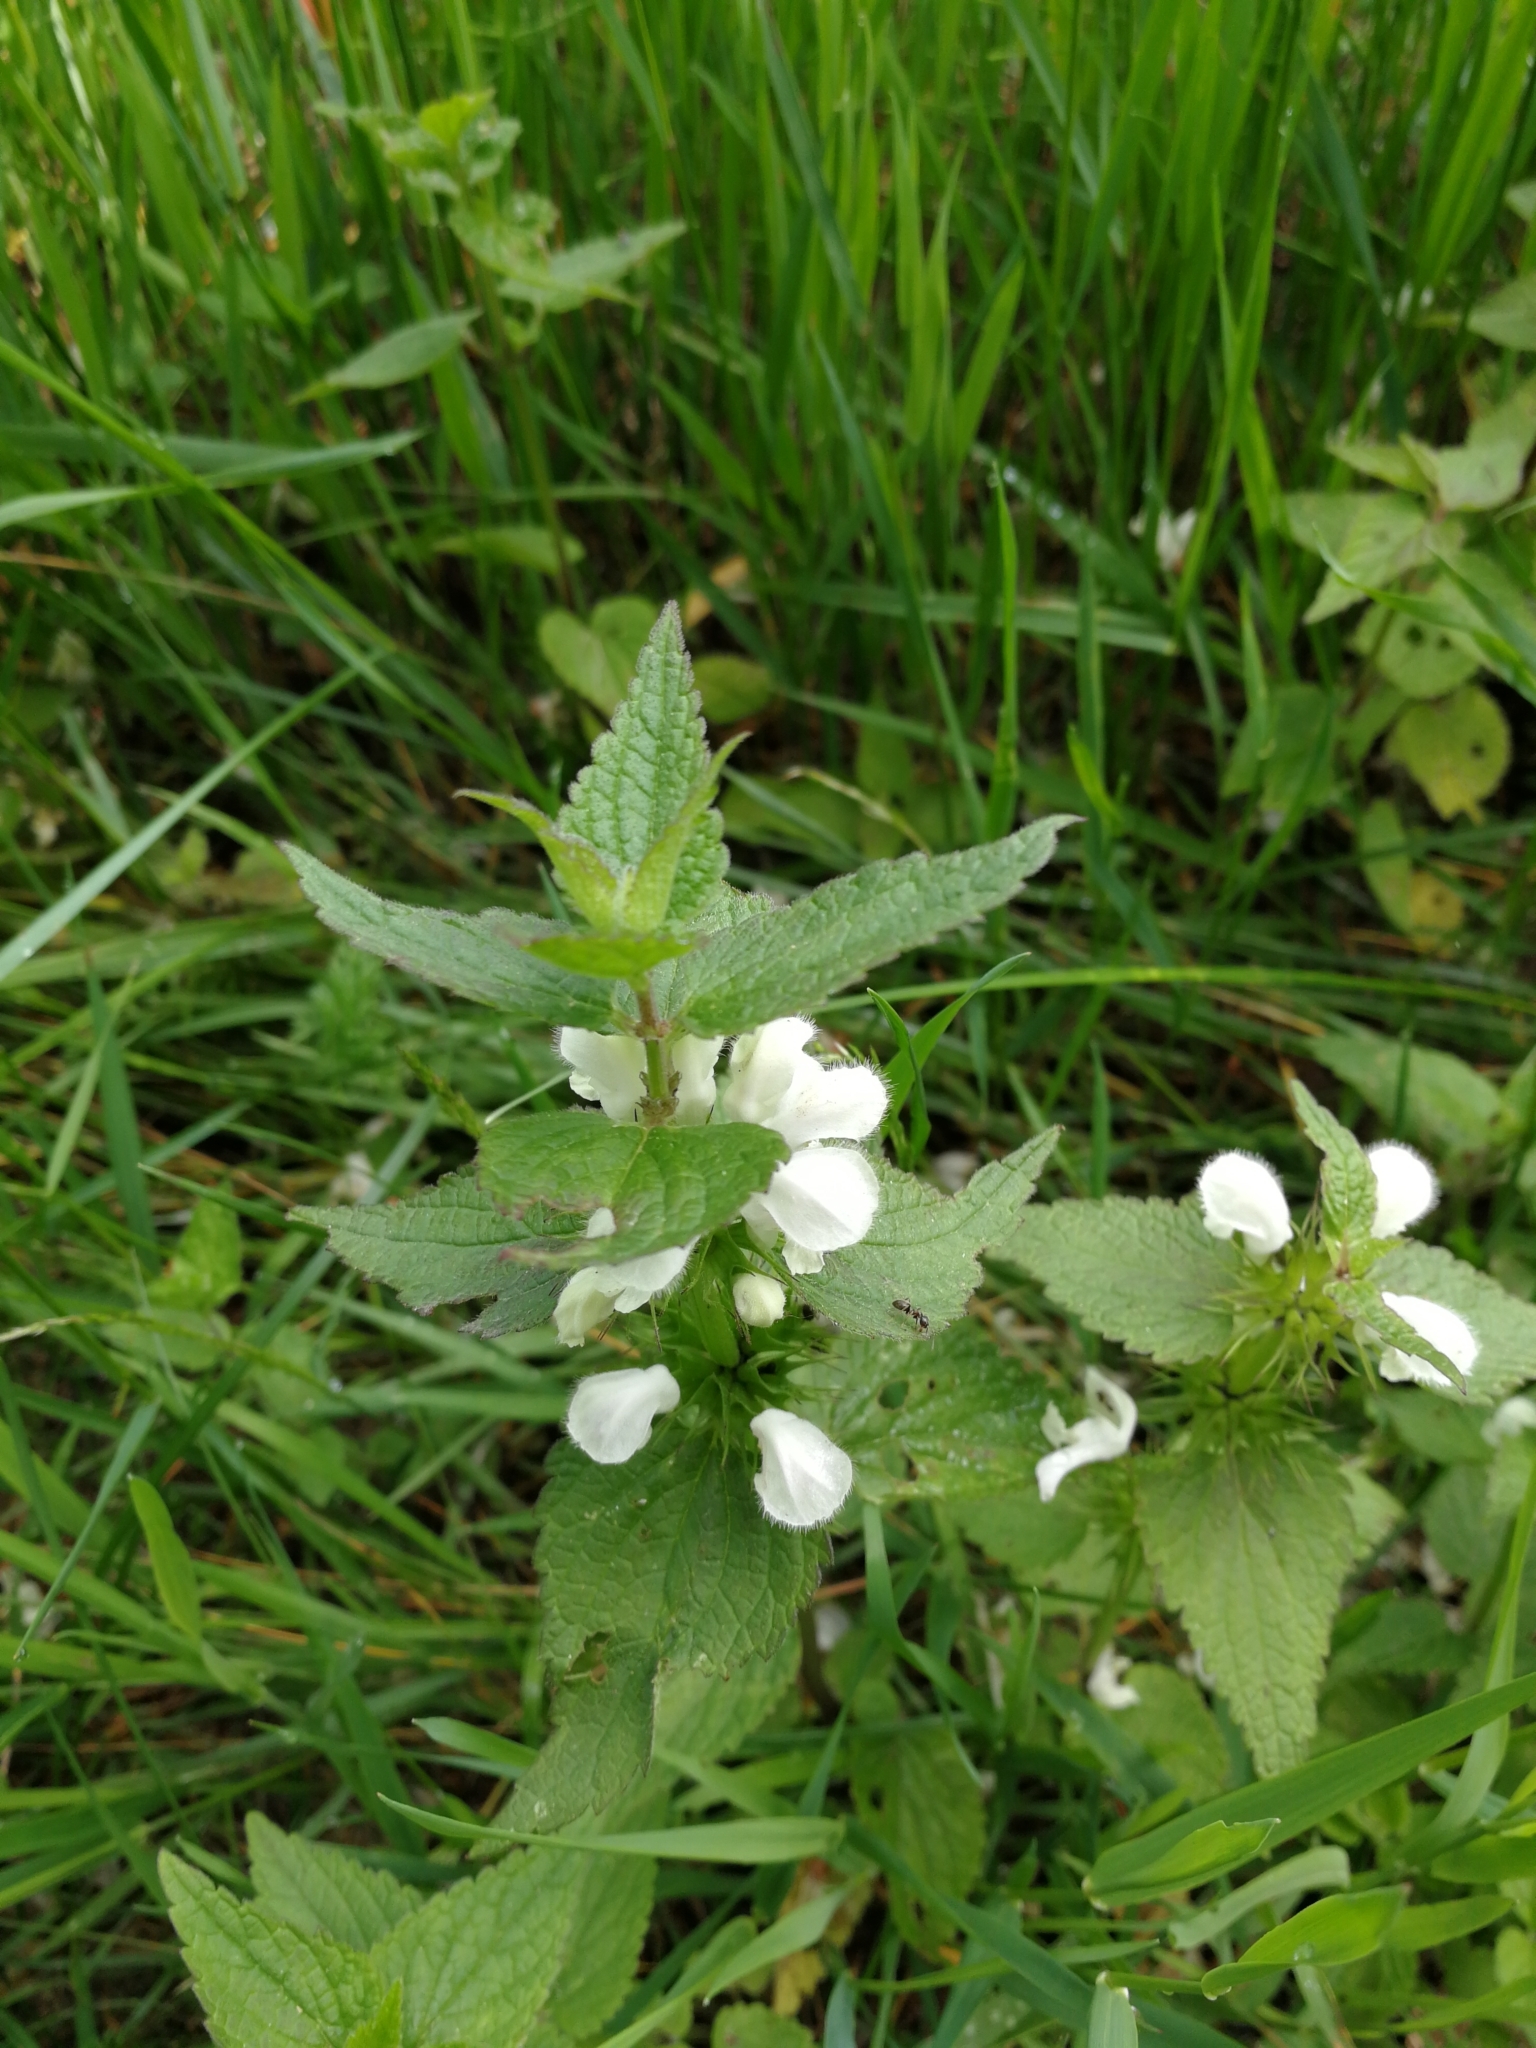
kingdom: Plantae
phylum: Tracheophyta
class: Magnoliopsida
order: Lamiales
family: Lamiaceae
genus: Lamium
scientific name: Lamium album
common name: White dead-nettle
